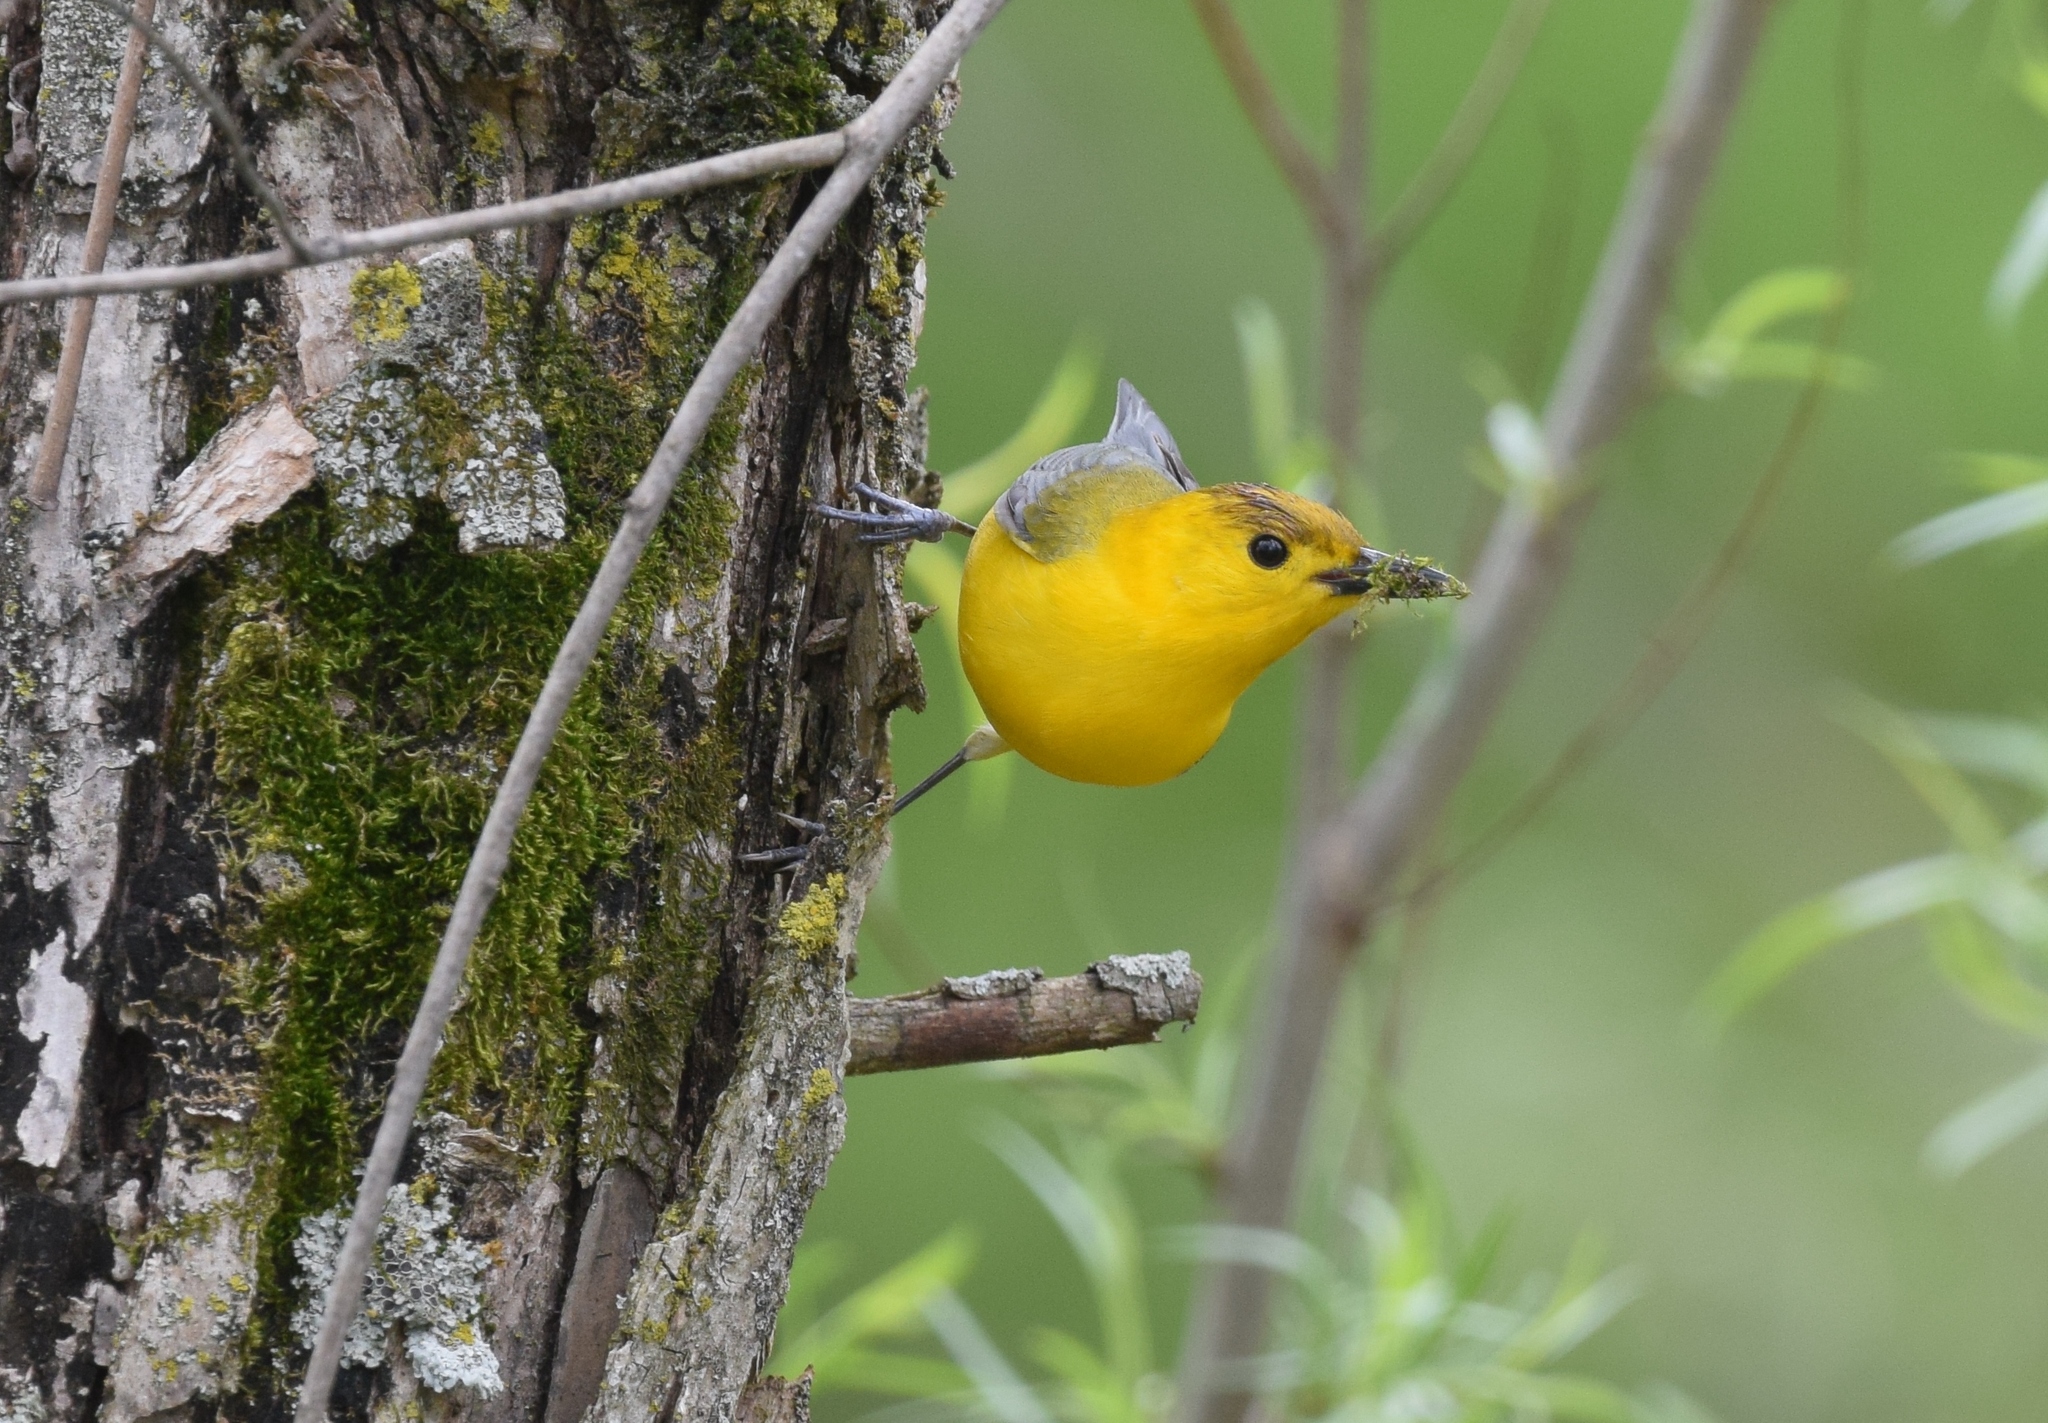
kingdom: Animalia
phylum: Chordata
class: Aves
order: Passeriformes
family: Parulidae
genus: Protonotaria
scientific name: Protonotaria citrea
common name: Prothonotary warbler
